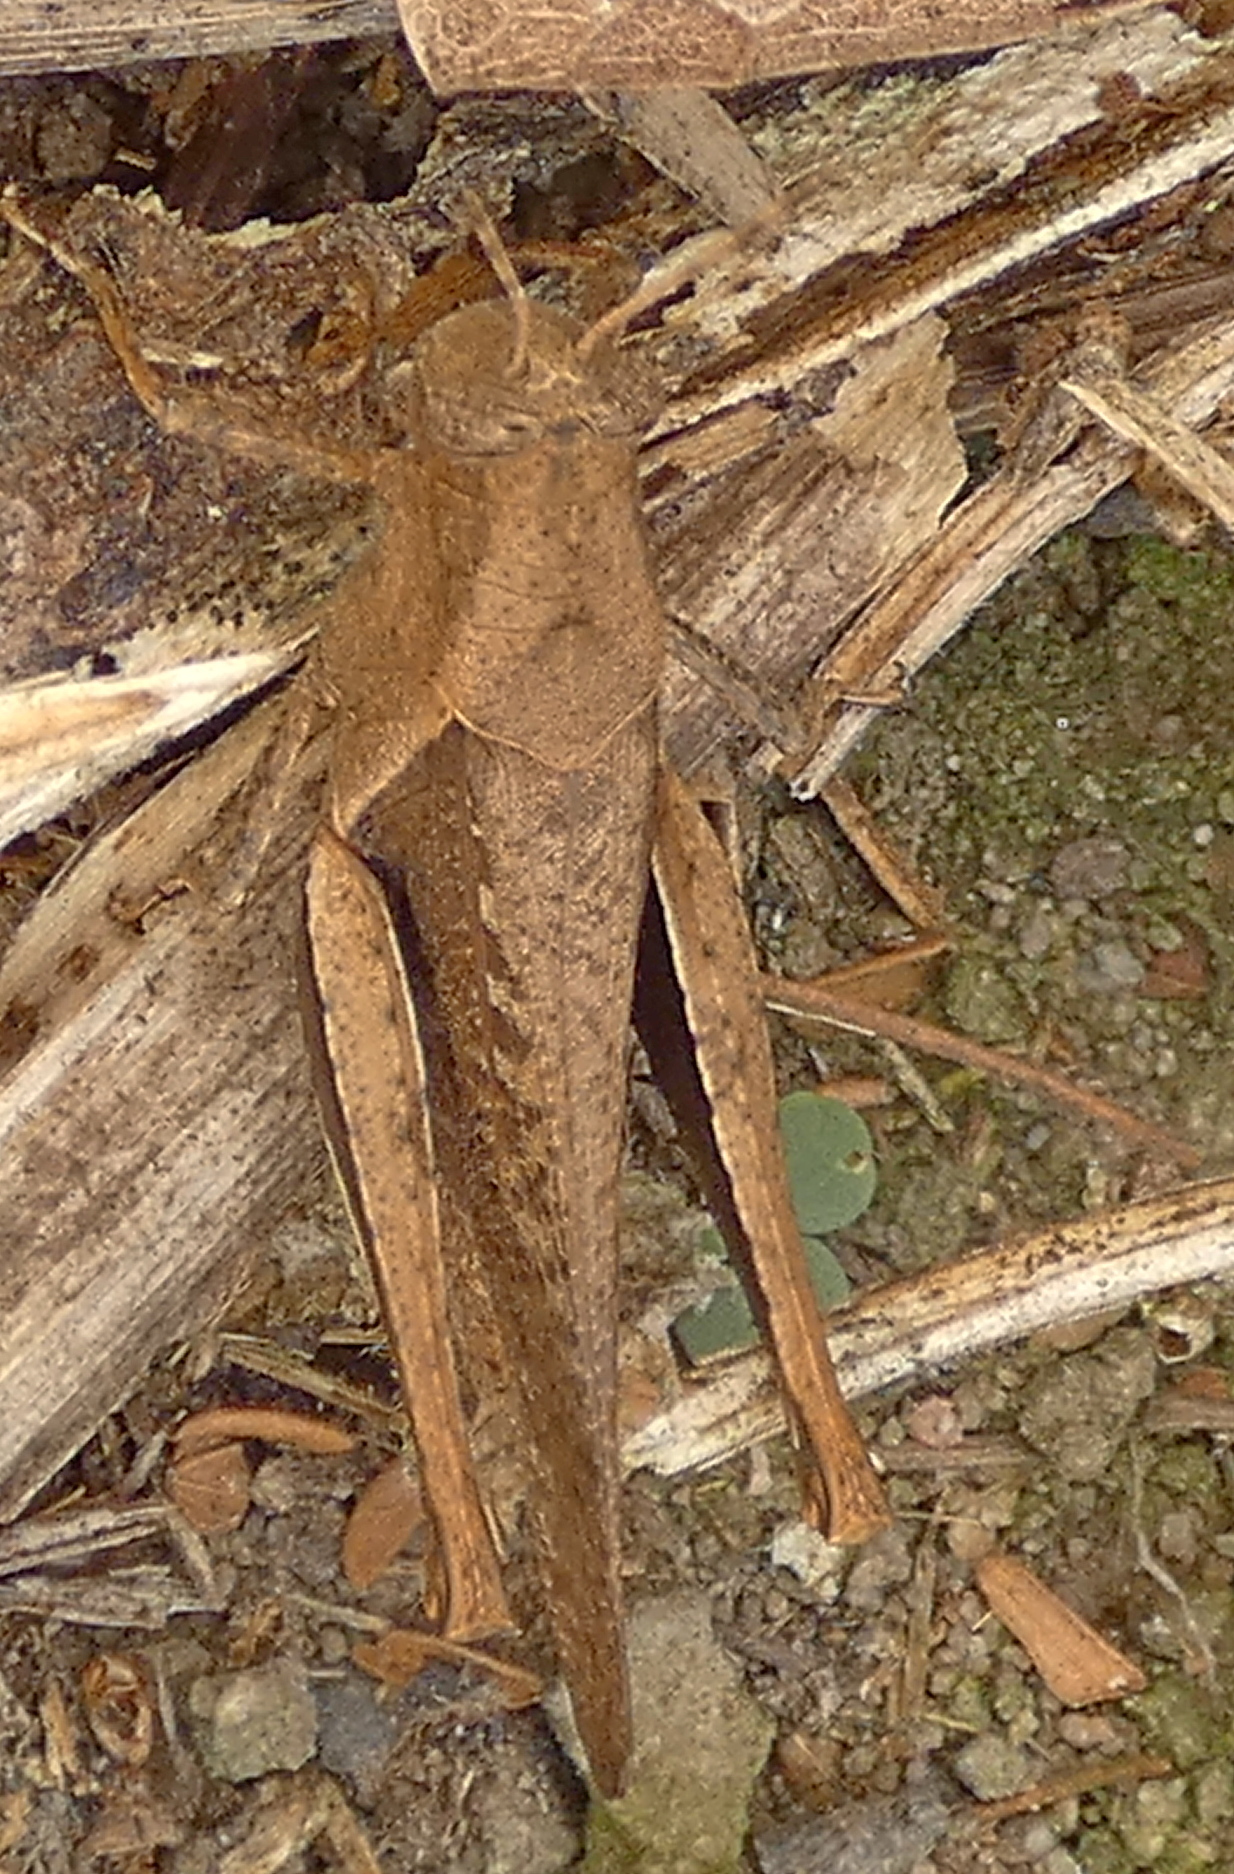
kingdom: Animalia
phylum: Arthropoda
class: Insecta
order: Orthoptera
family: Acrididae
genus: Abracris
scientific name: Abracris flavolineata
